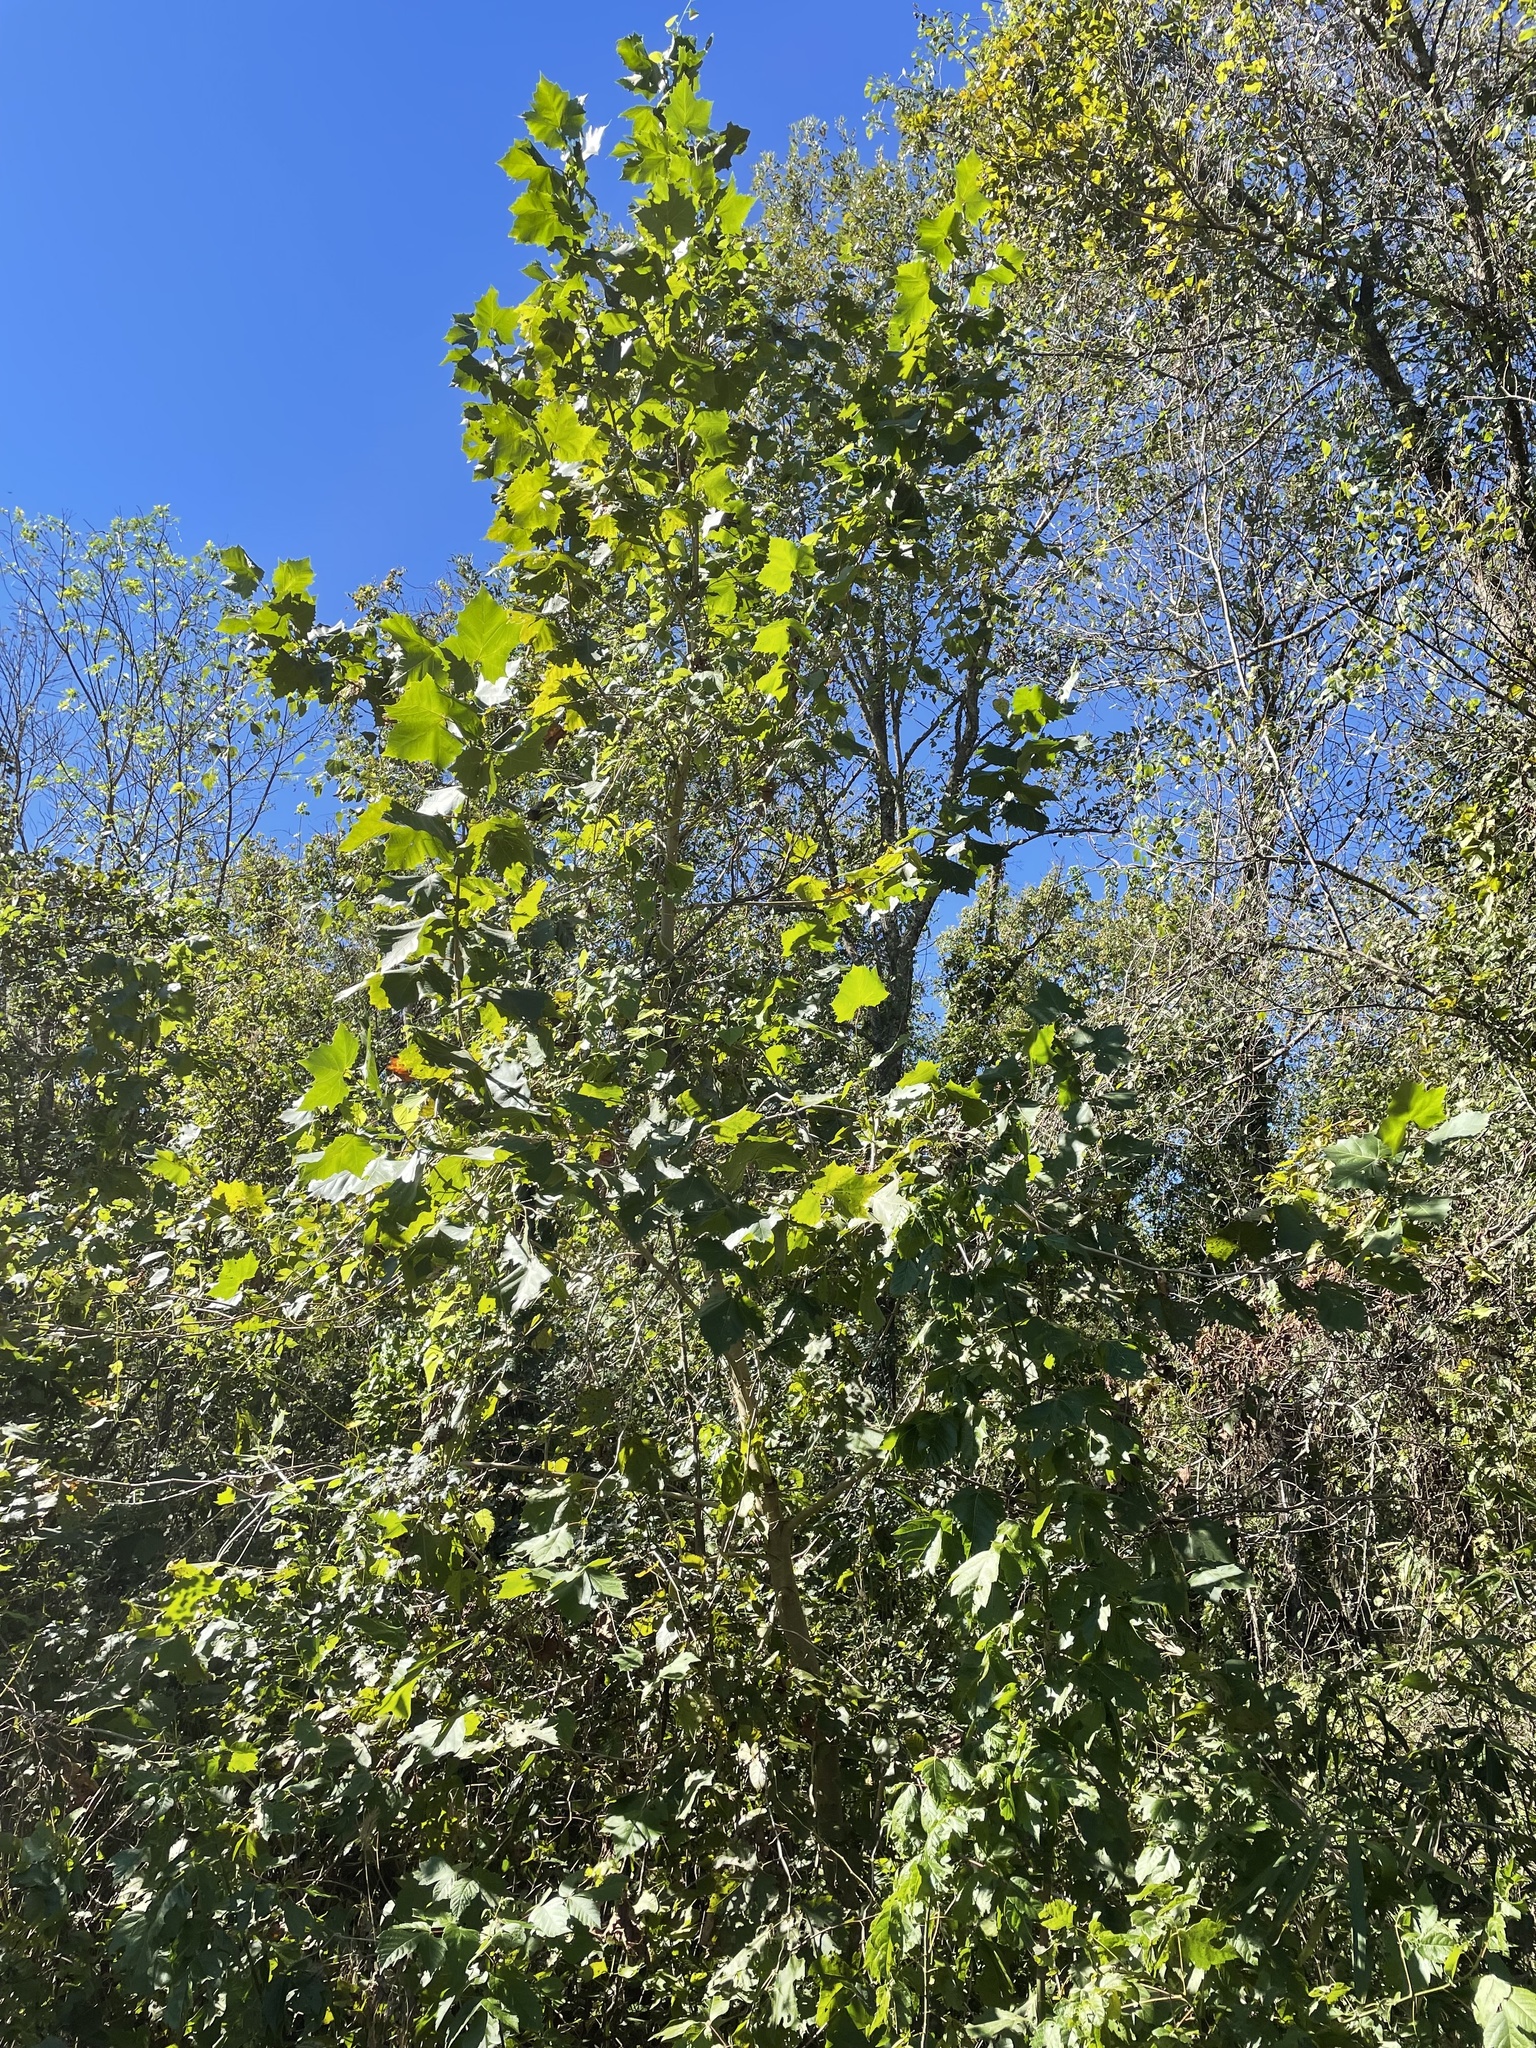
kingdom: Plantae
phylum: Tracheophyta
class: Magnoliopsida
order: Proteales
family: Platanaceae
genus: Platanus
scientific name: Platanus occidentalis
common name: American sycamore
